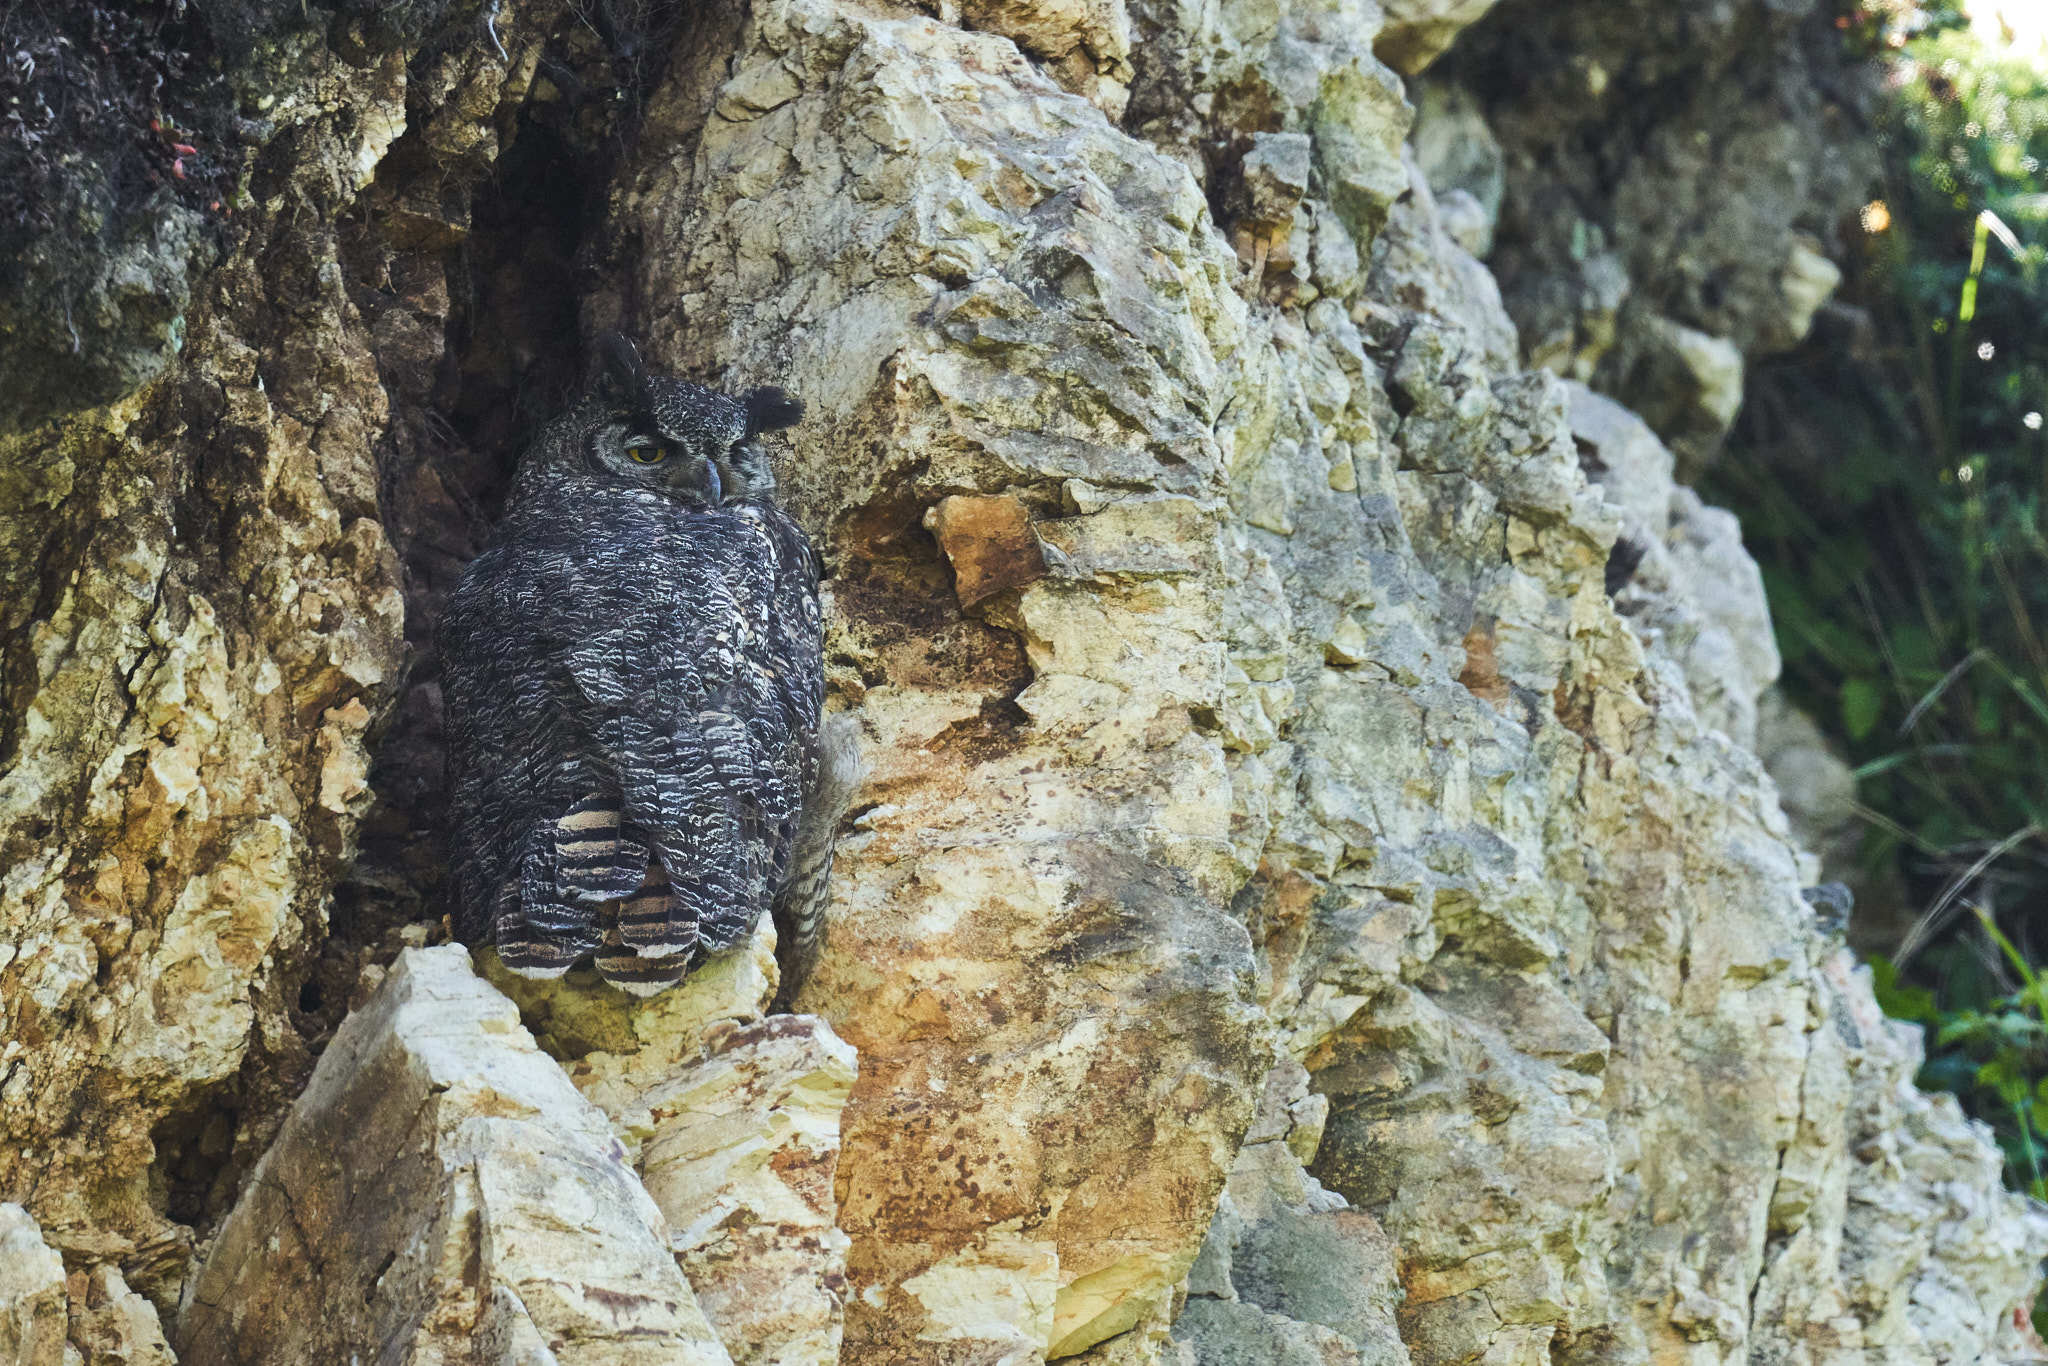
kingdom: Animalia
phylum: Chordata
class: Aves
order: Strigiformes
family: Strigidae
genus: Bubo
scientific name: Bubo virginianus
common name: Great horned owl
